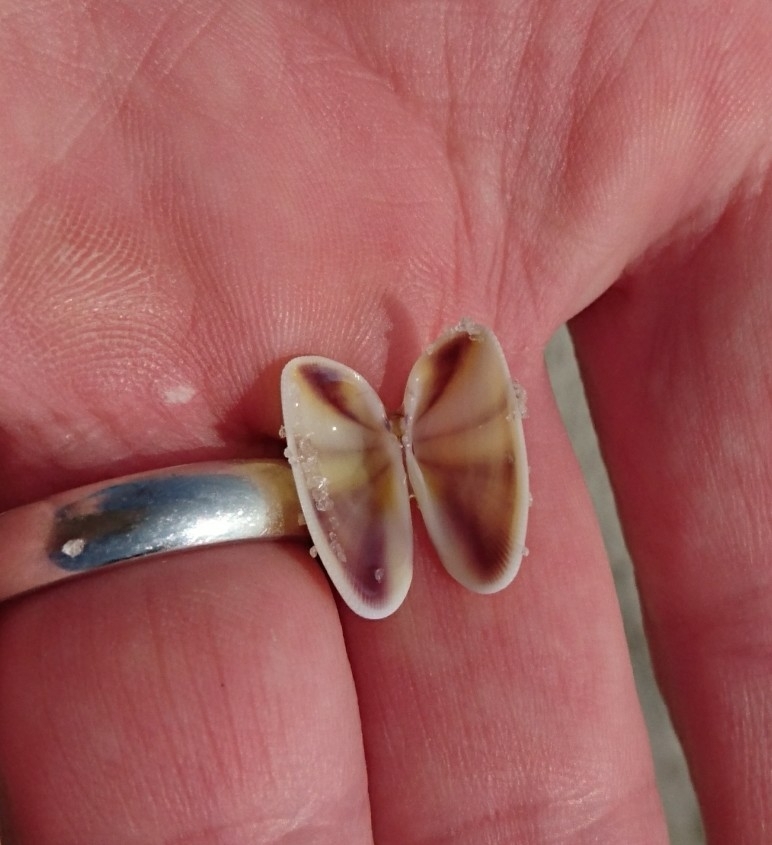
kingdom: Animalia
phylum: Mollusca
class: Bivalvia
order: Cardiida
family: Donacidae
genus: Donax
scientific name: Donax variabilis
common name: Butterfly shell
